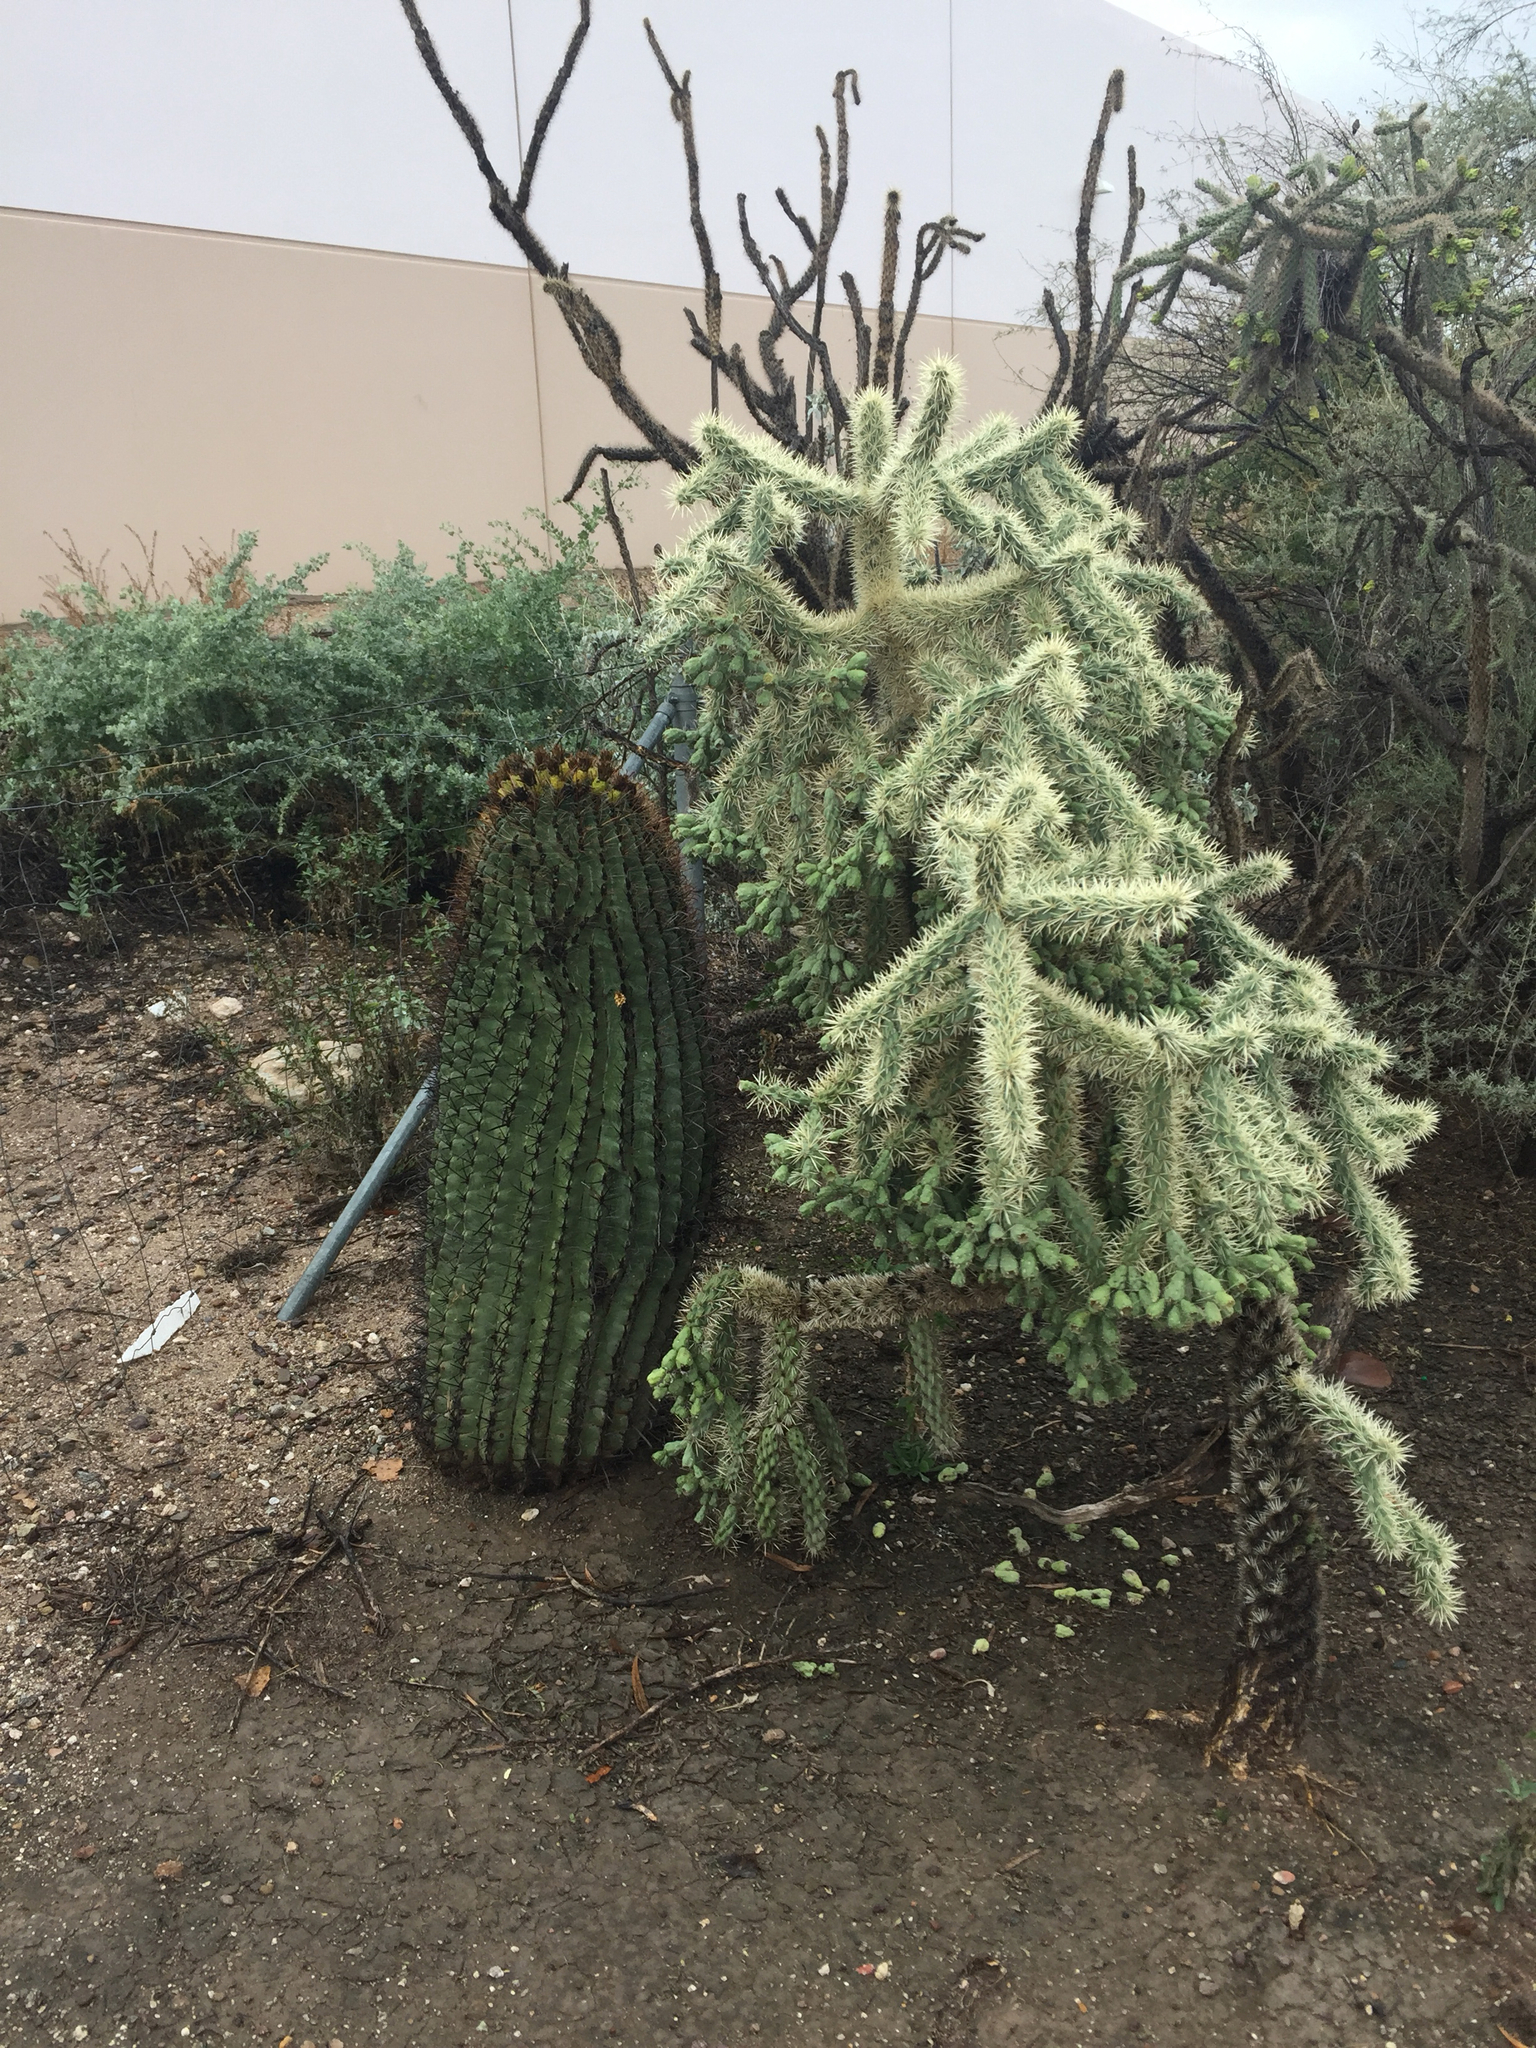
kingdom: Plantae
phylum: Tracheophyta
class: Magnoliopsida
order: Caryophyllales
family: Cactaceae
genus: Ferocactus
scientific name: Ferocactus wislizeni
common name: Candy barrel cactus
